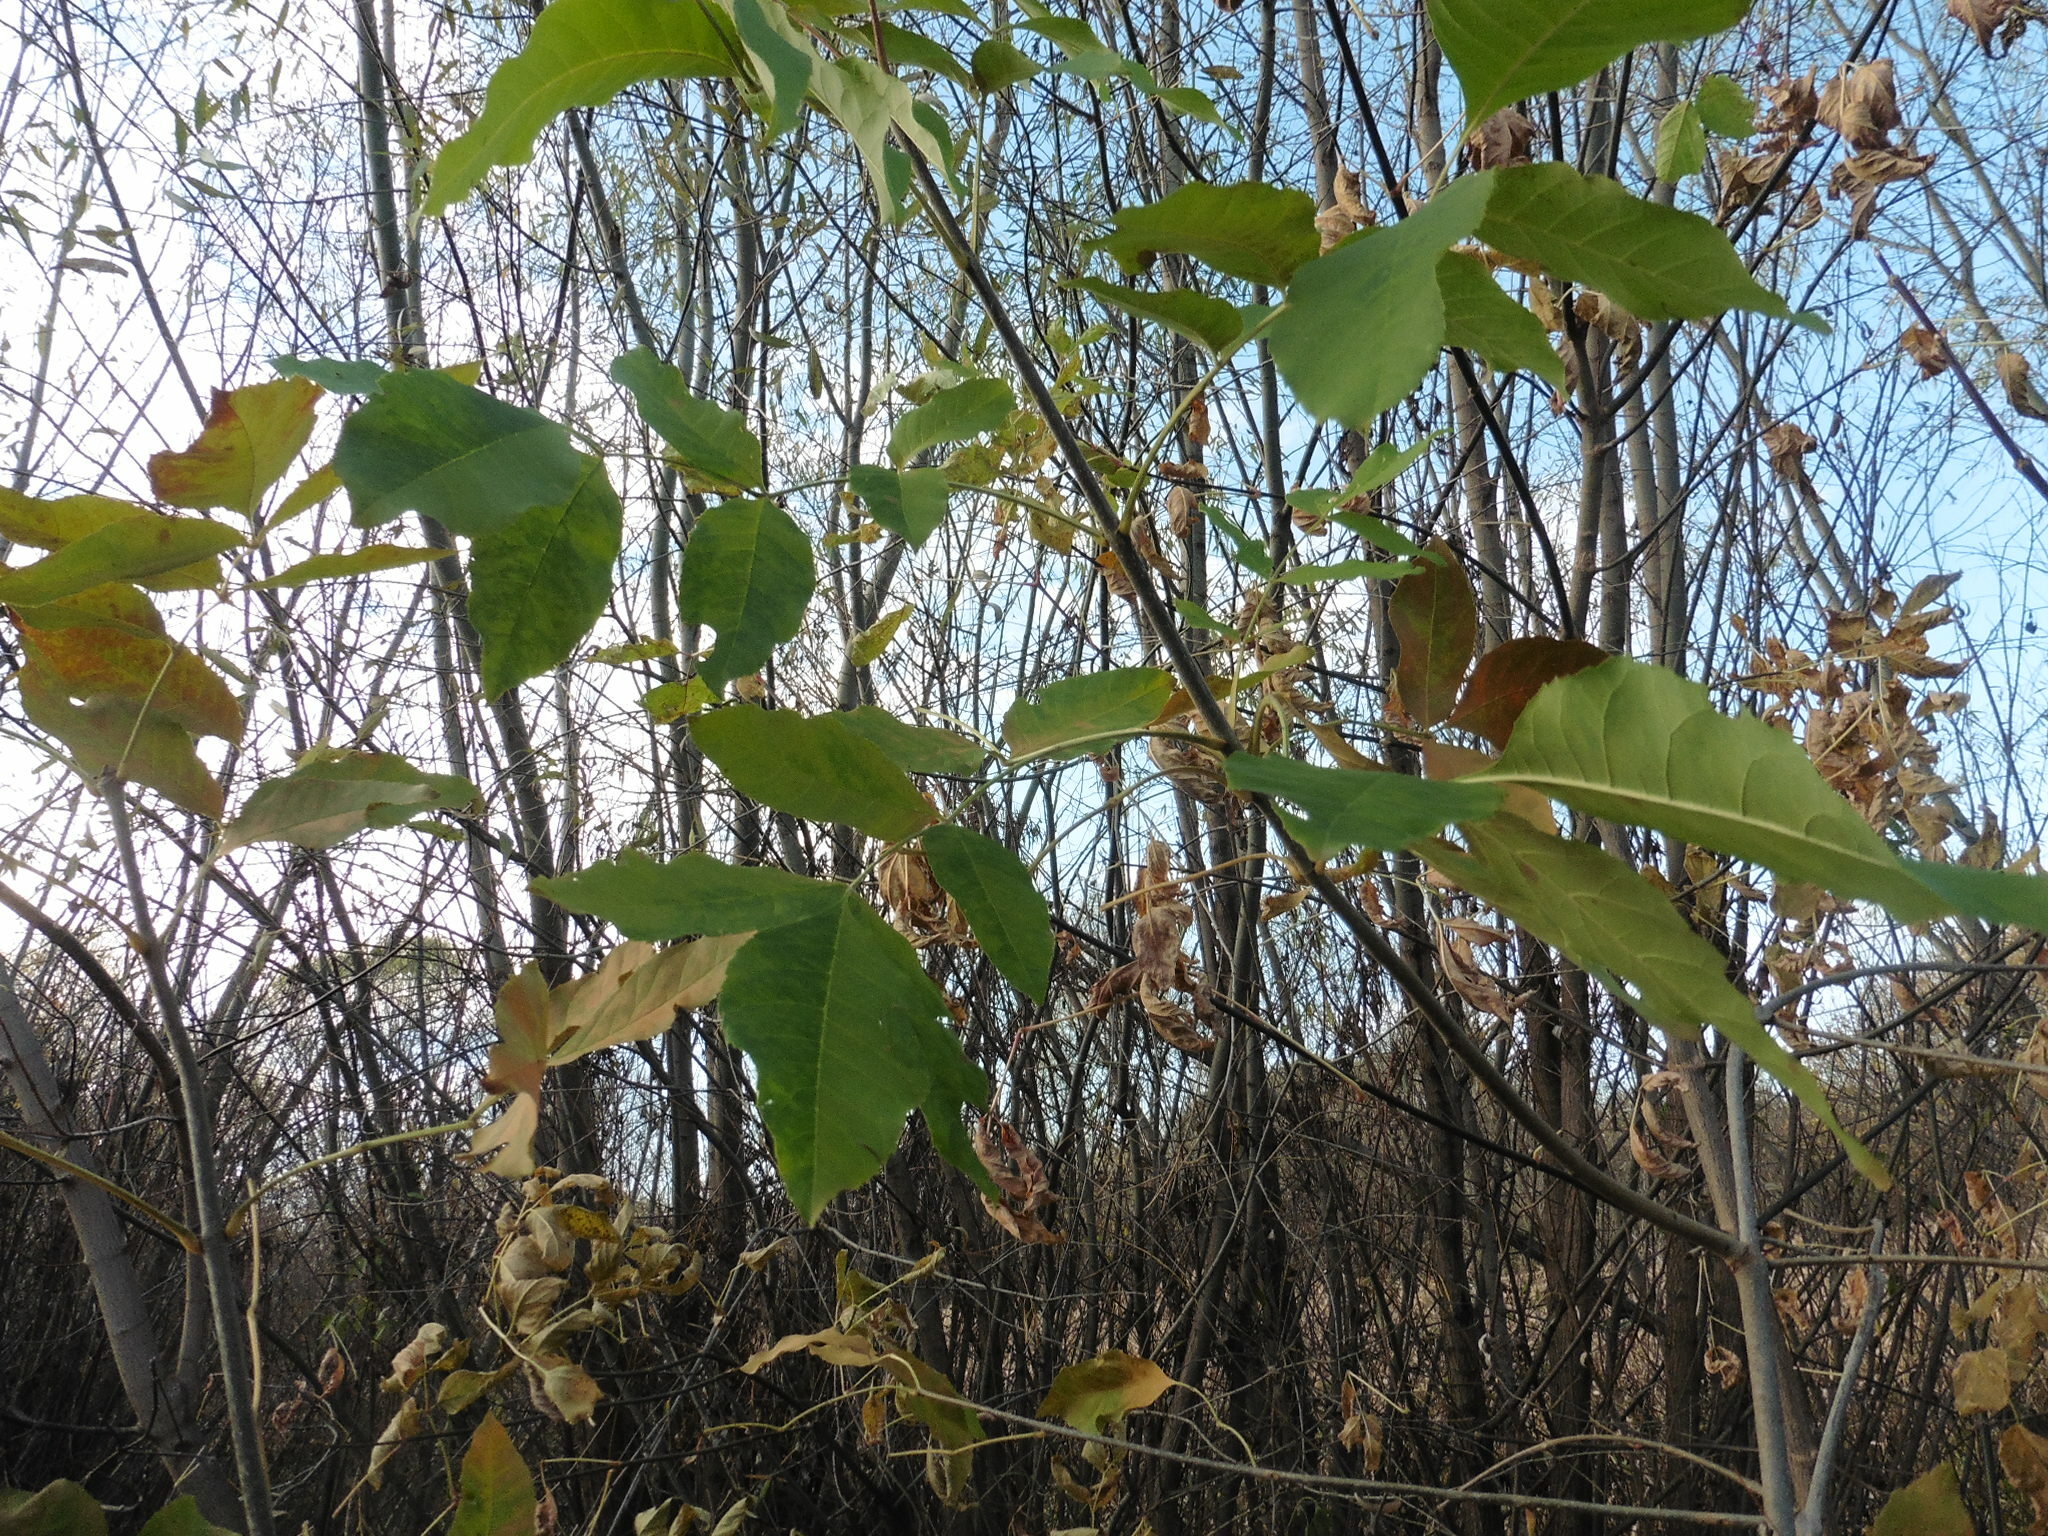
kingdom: Plantae
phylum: Tracheophyta
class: Magnoliopsida
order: Lamiales
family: Oleaceae
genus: Fraxinus
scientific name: Fraxinus pennsylvanica
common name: Green ash
